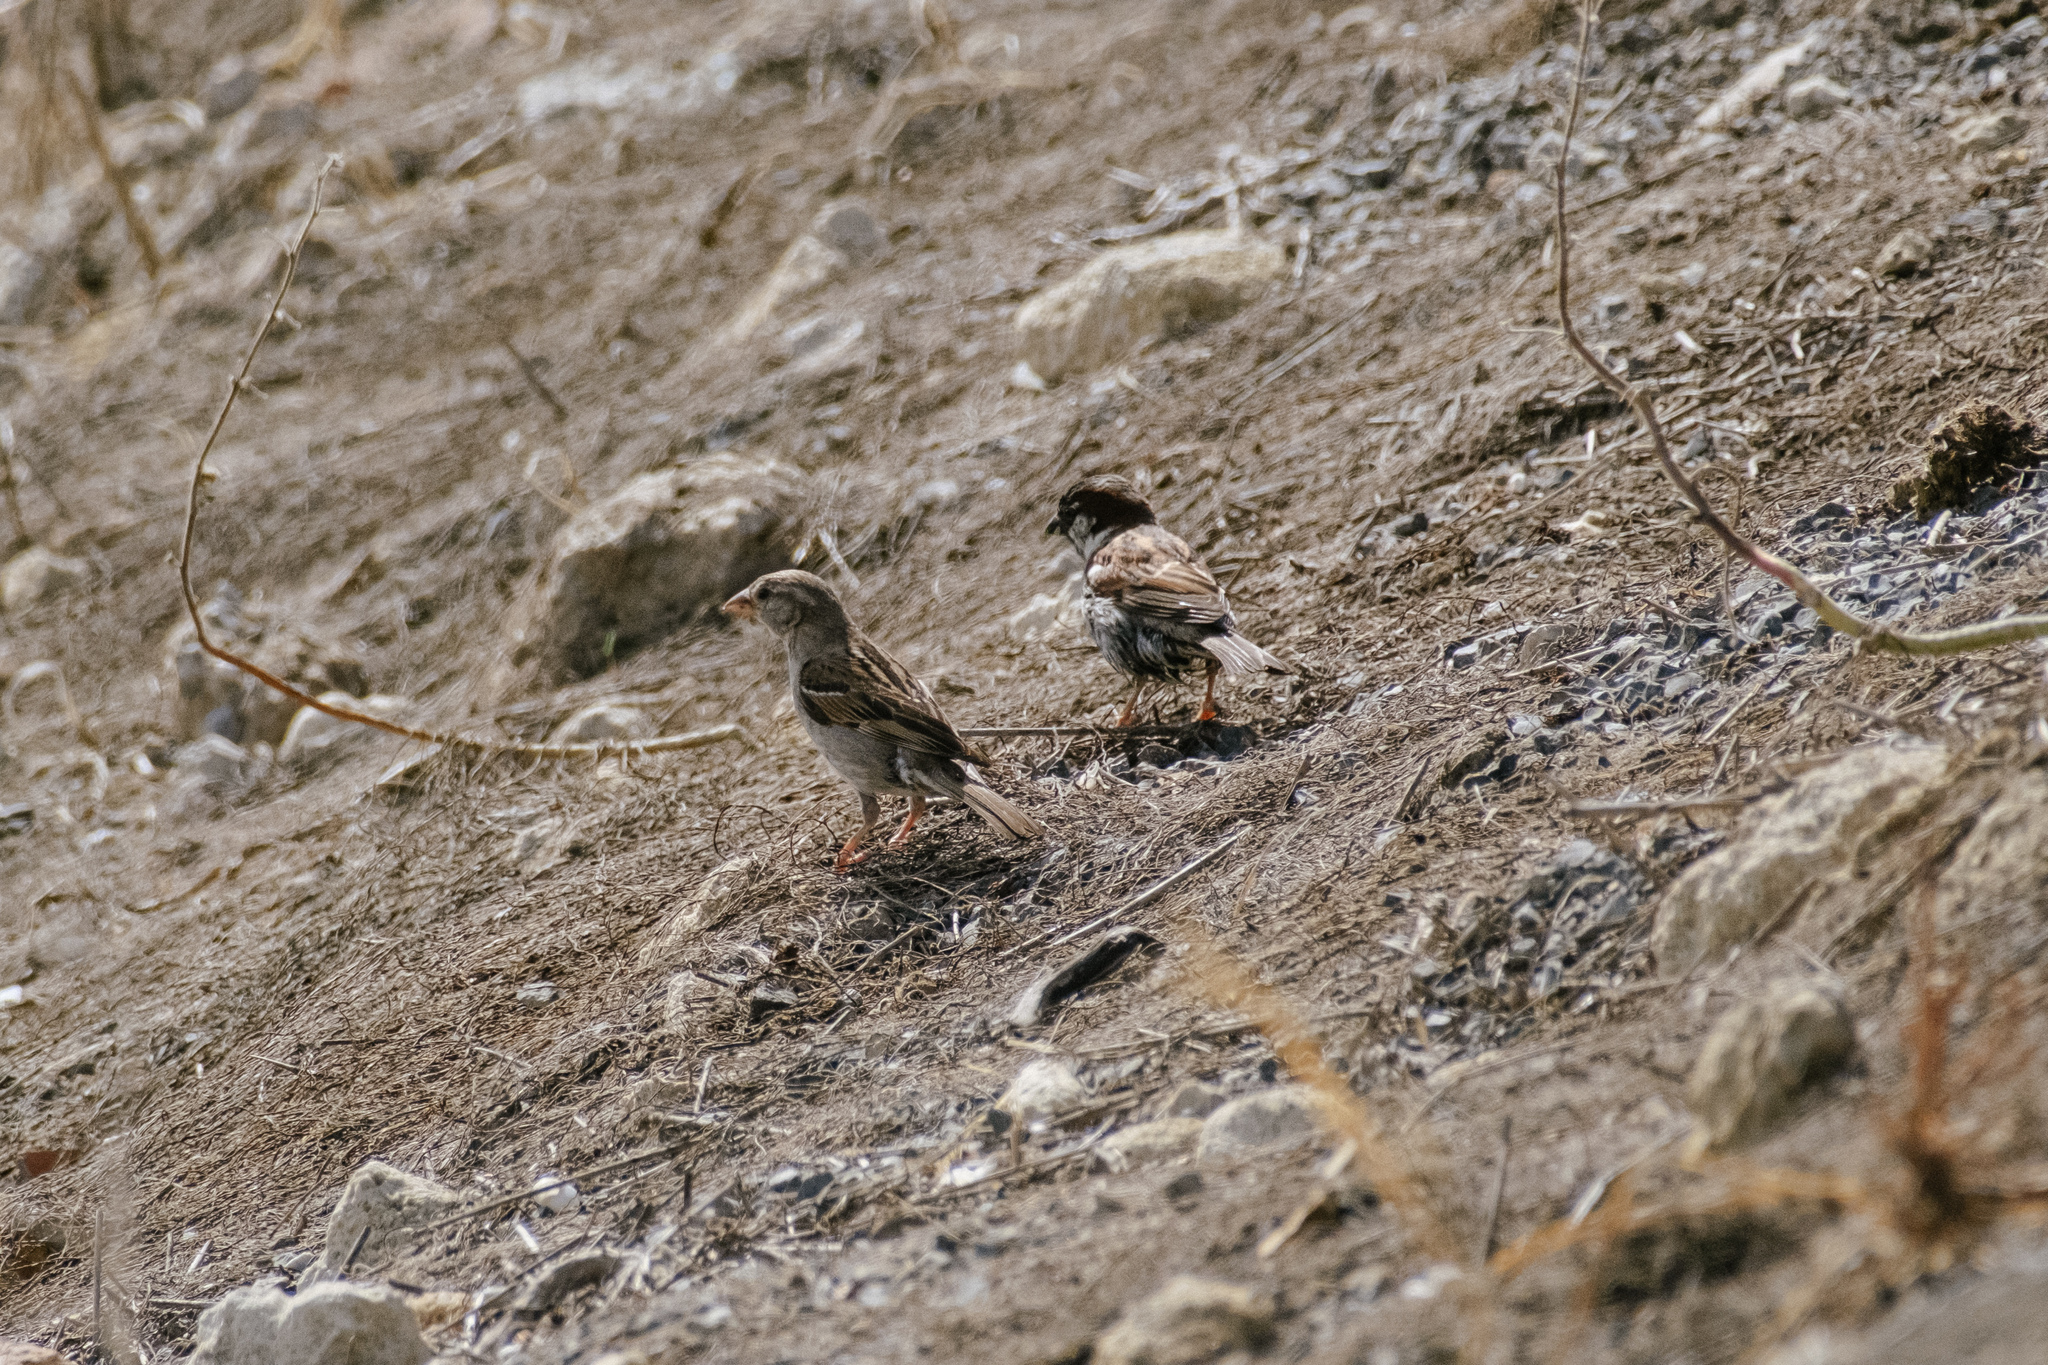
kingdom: Animalia
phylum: Chordata
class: Aves
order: Passeriformes
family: Passeridae
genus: Passer
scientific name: Passer domesticus
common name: House sparrow
